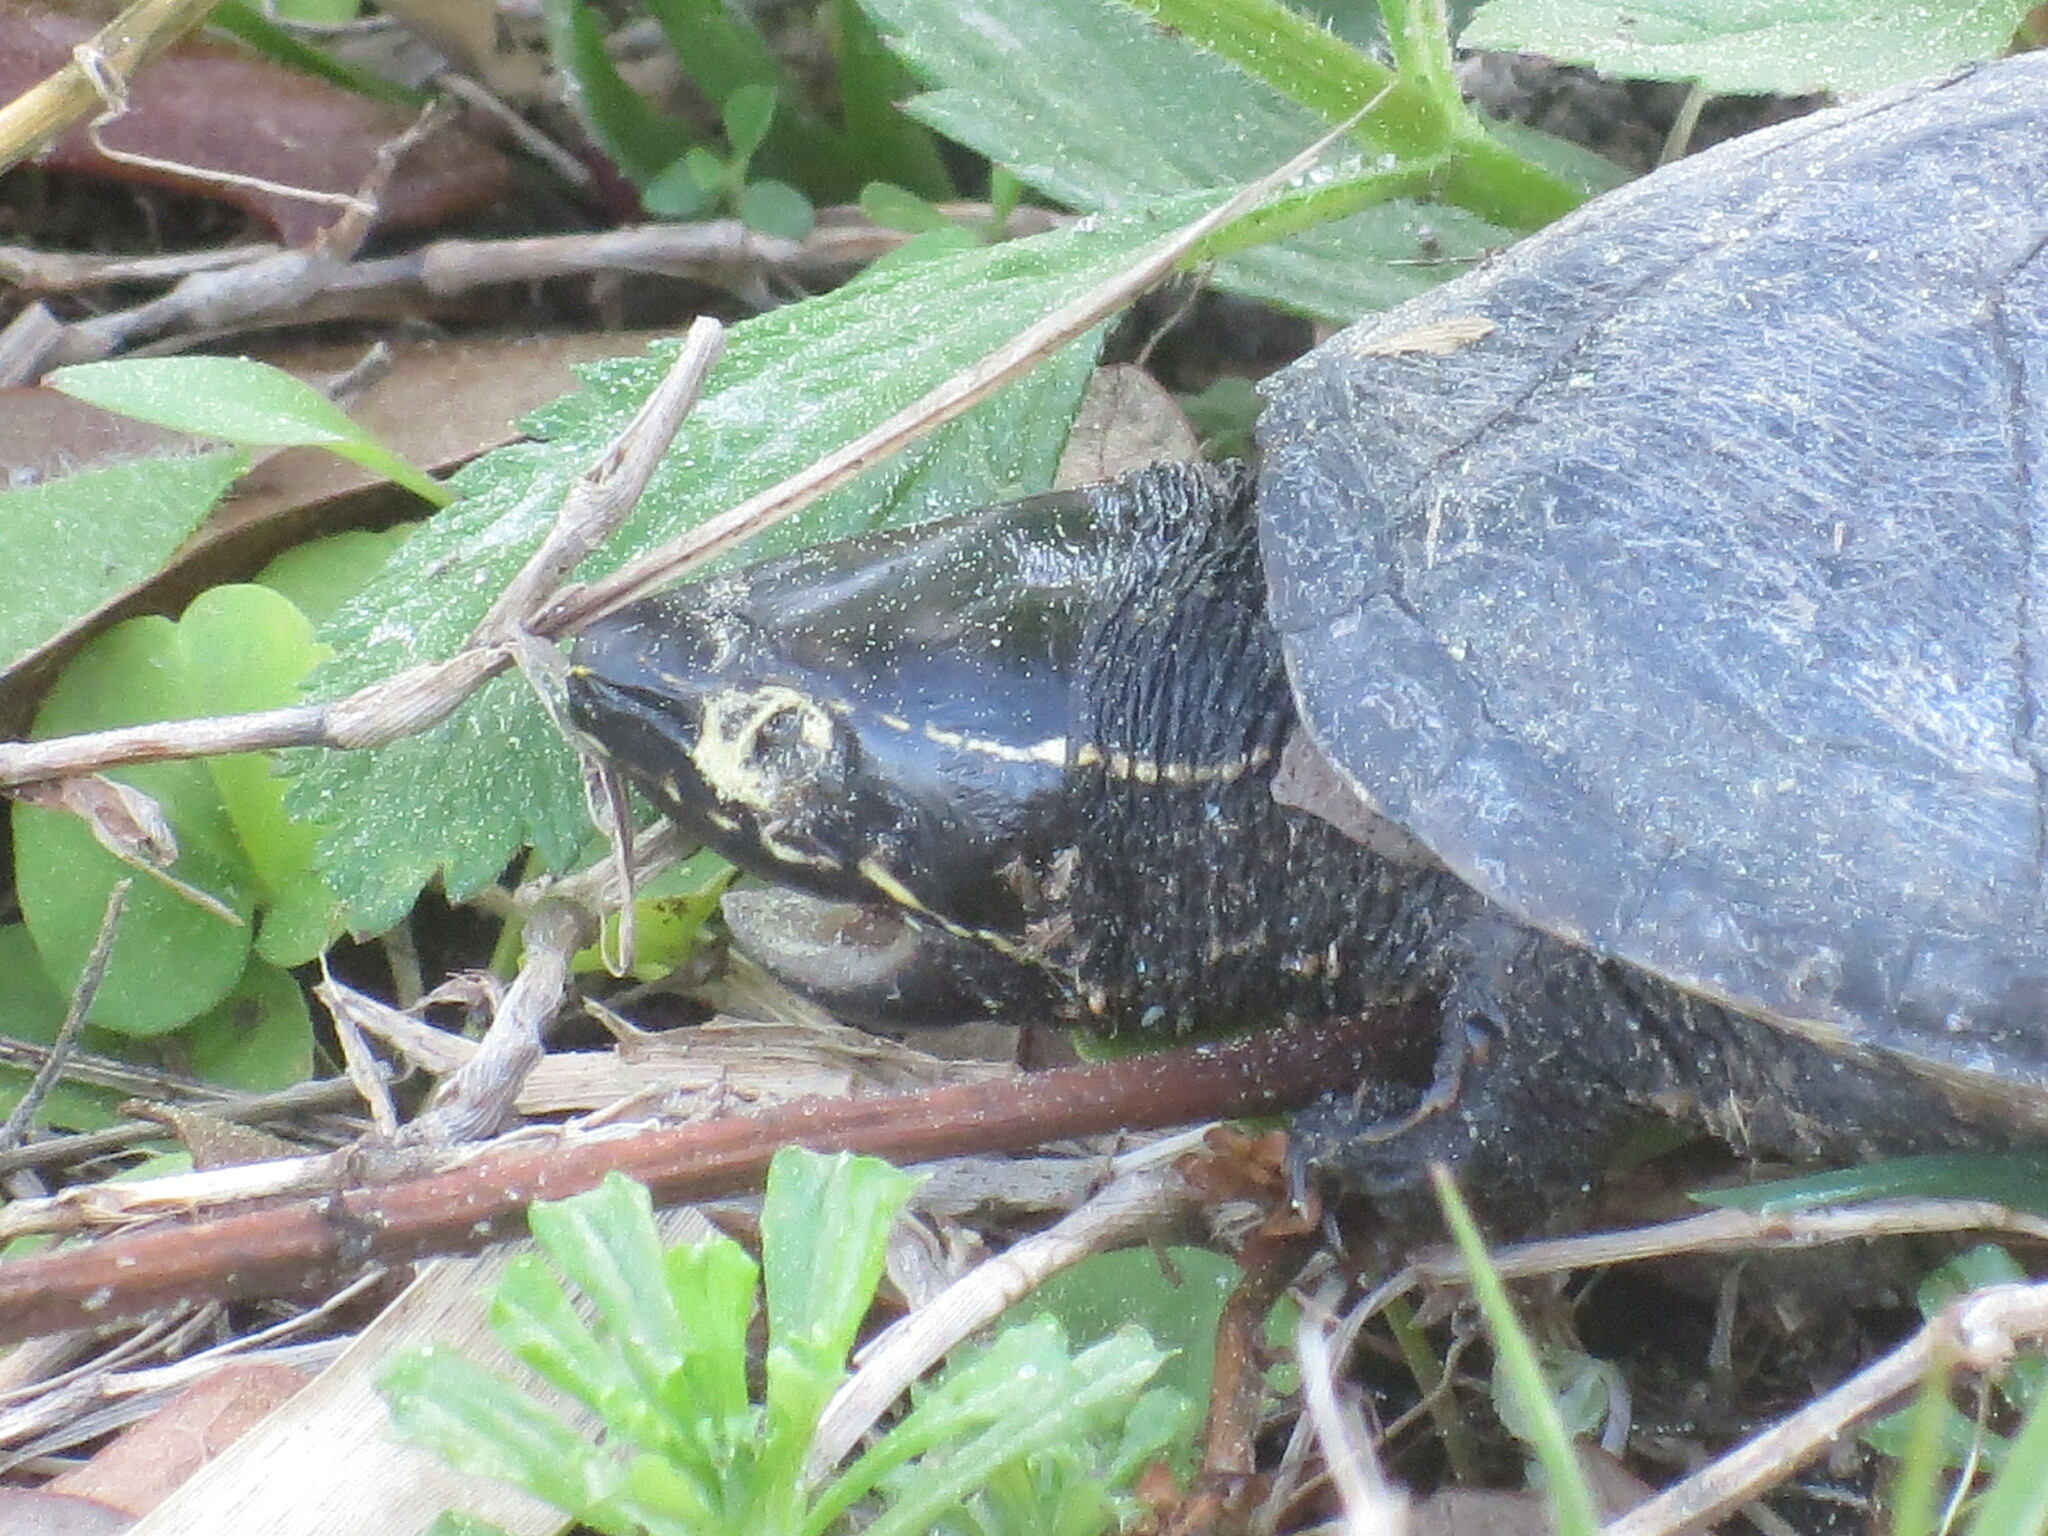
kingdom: Animalia
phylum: Chordata
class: Testudines
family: Kinosternidae
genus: Sternotherus
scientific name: Sternotherus odoratus
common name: Common musk turtle
